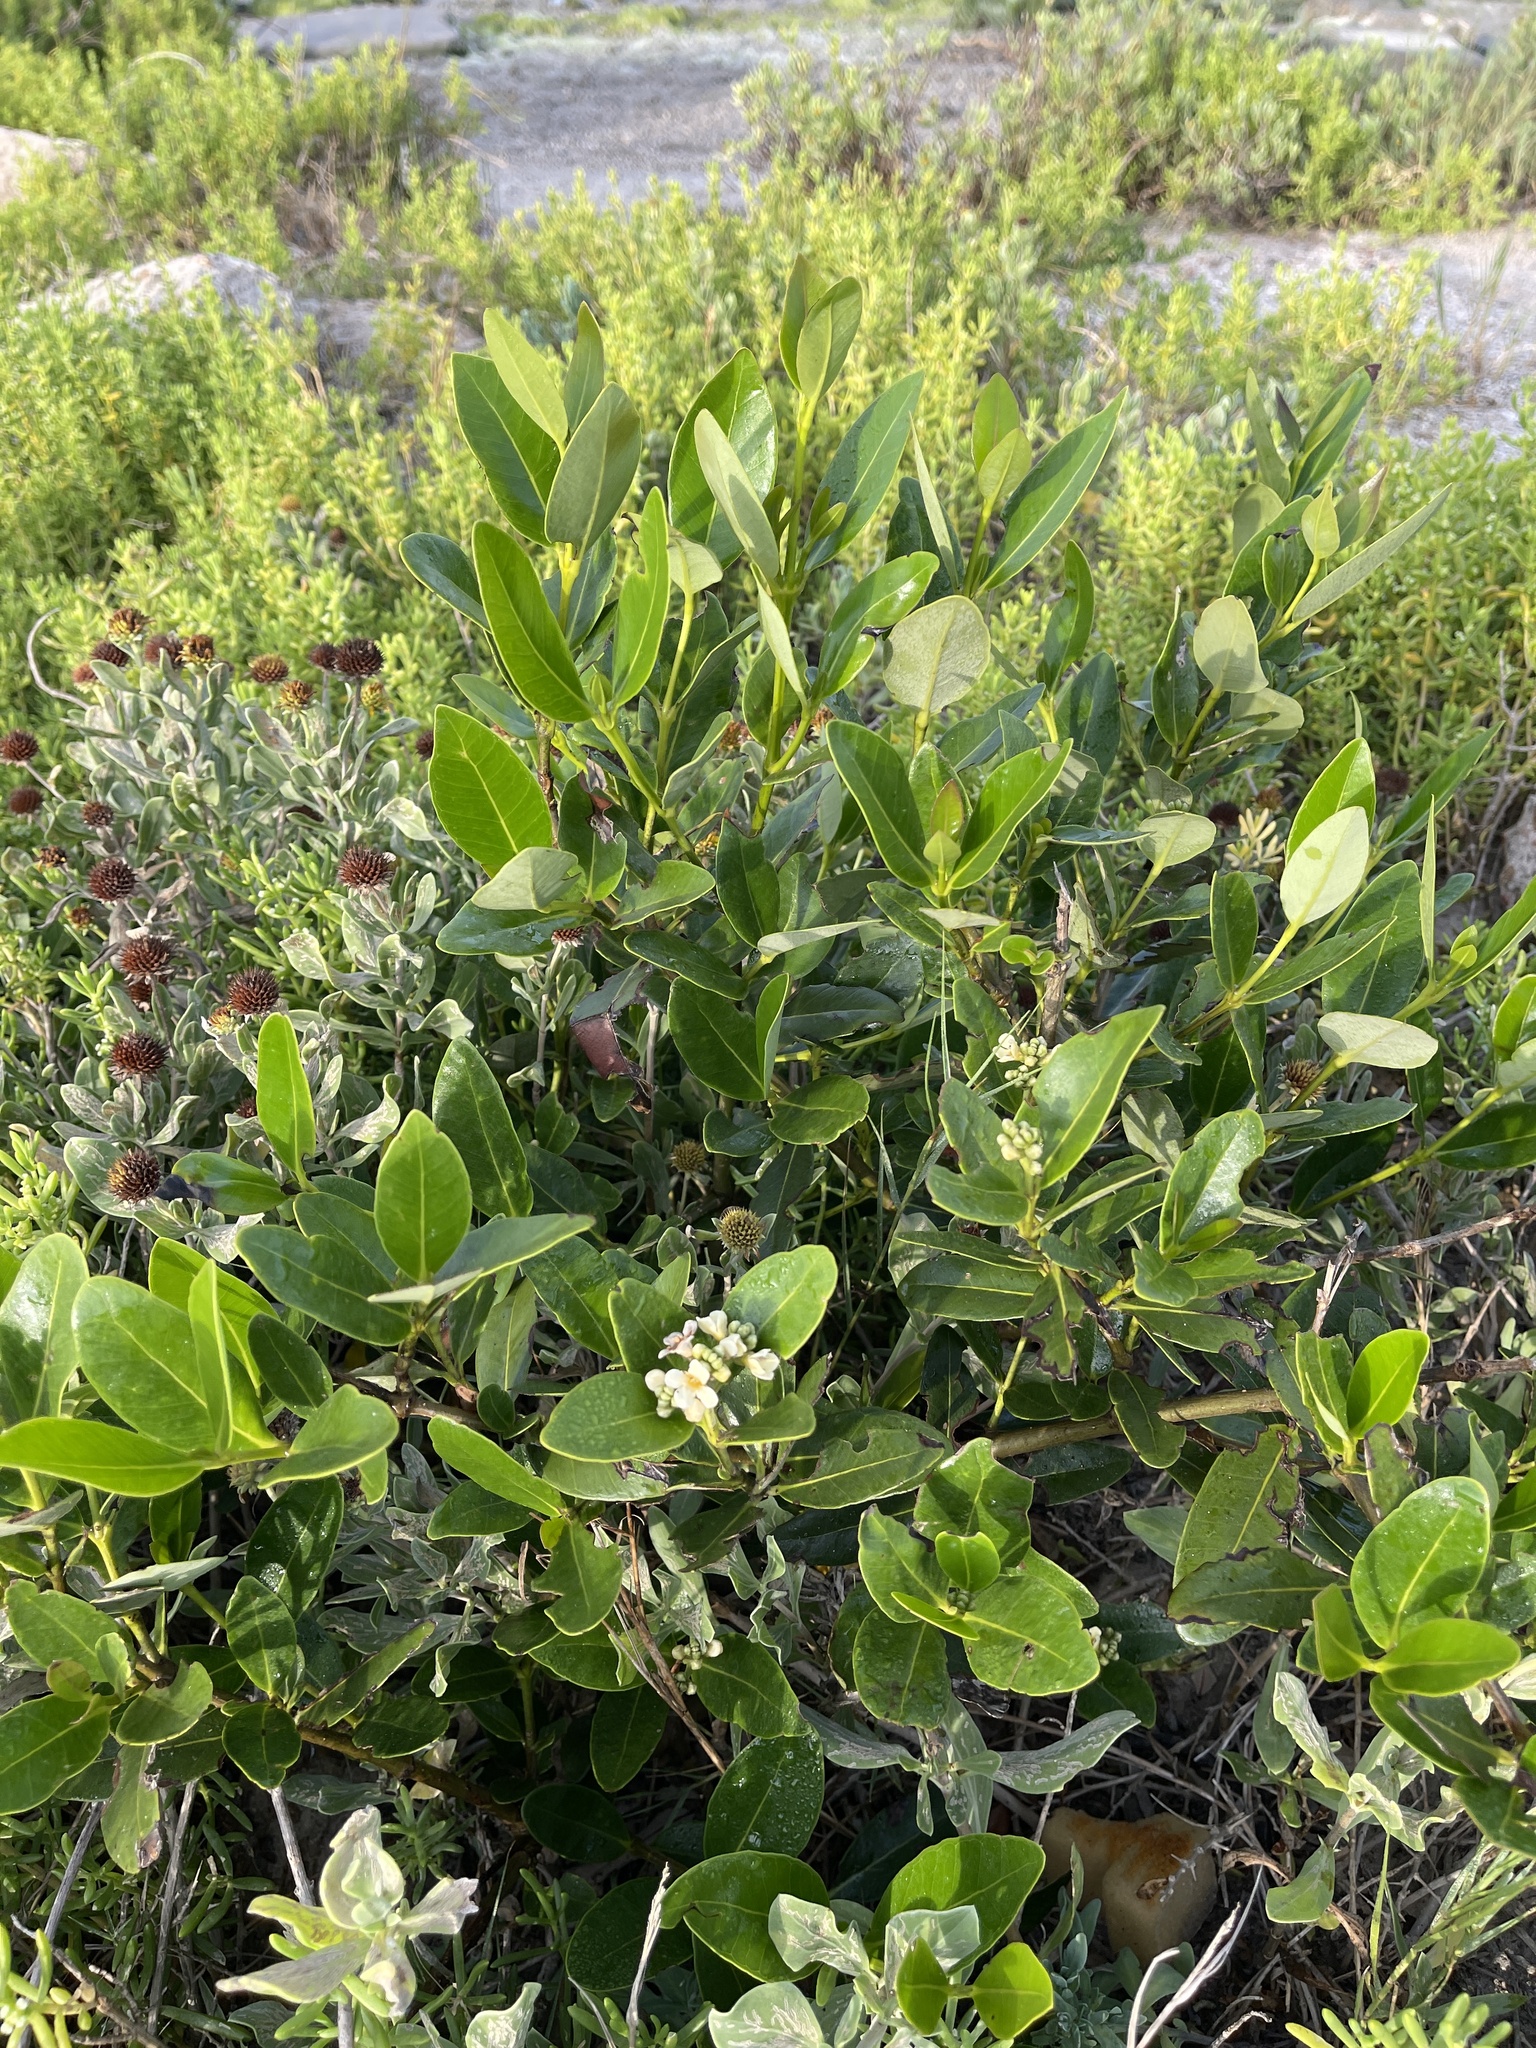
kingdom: Plantae
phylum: Tracheophyta
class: Magnoliopsida
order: Lamiales
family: Acanthaceae
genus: Avicennia
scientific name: Avicennia germinans
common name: Black mangrove
